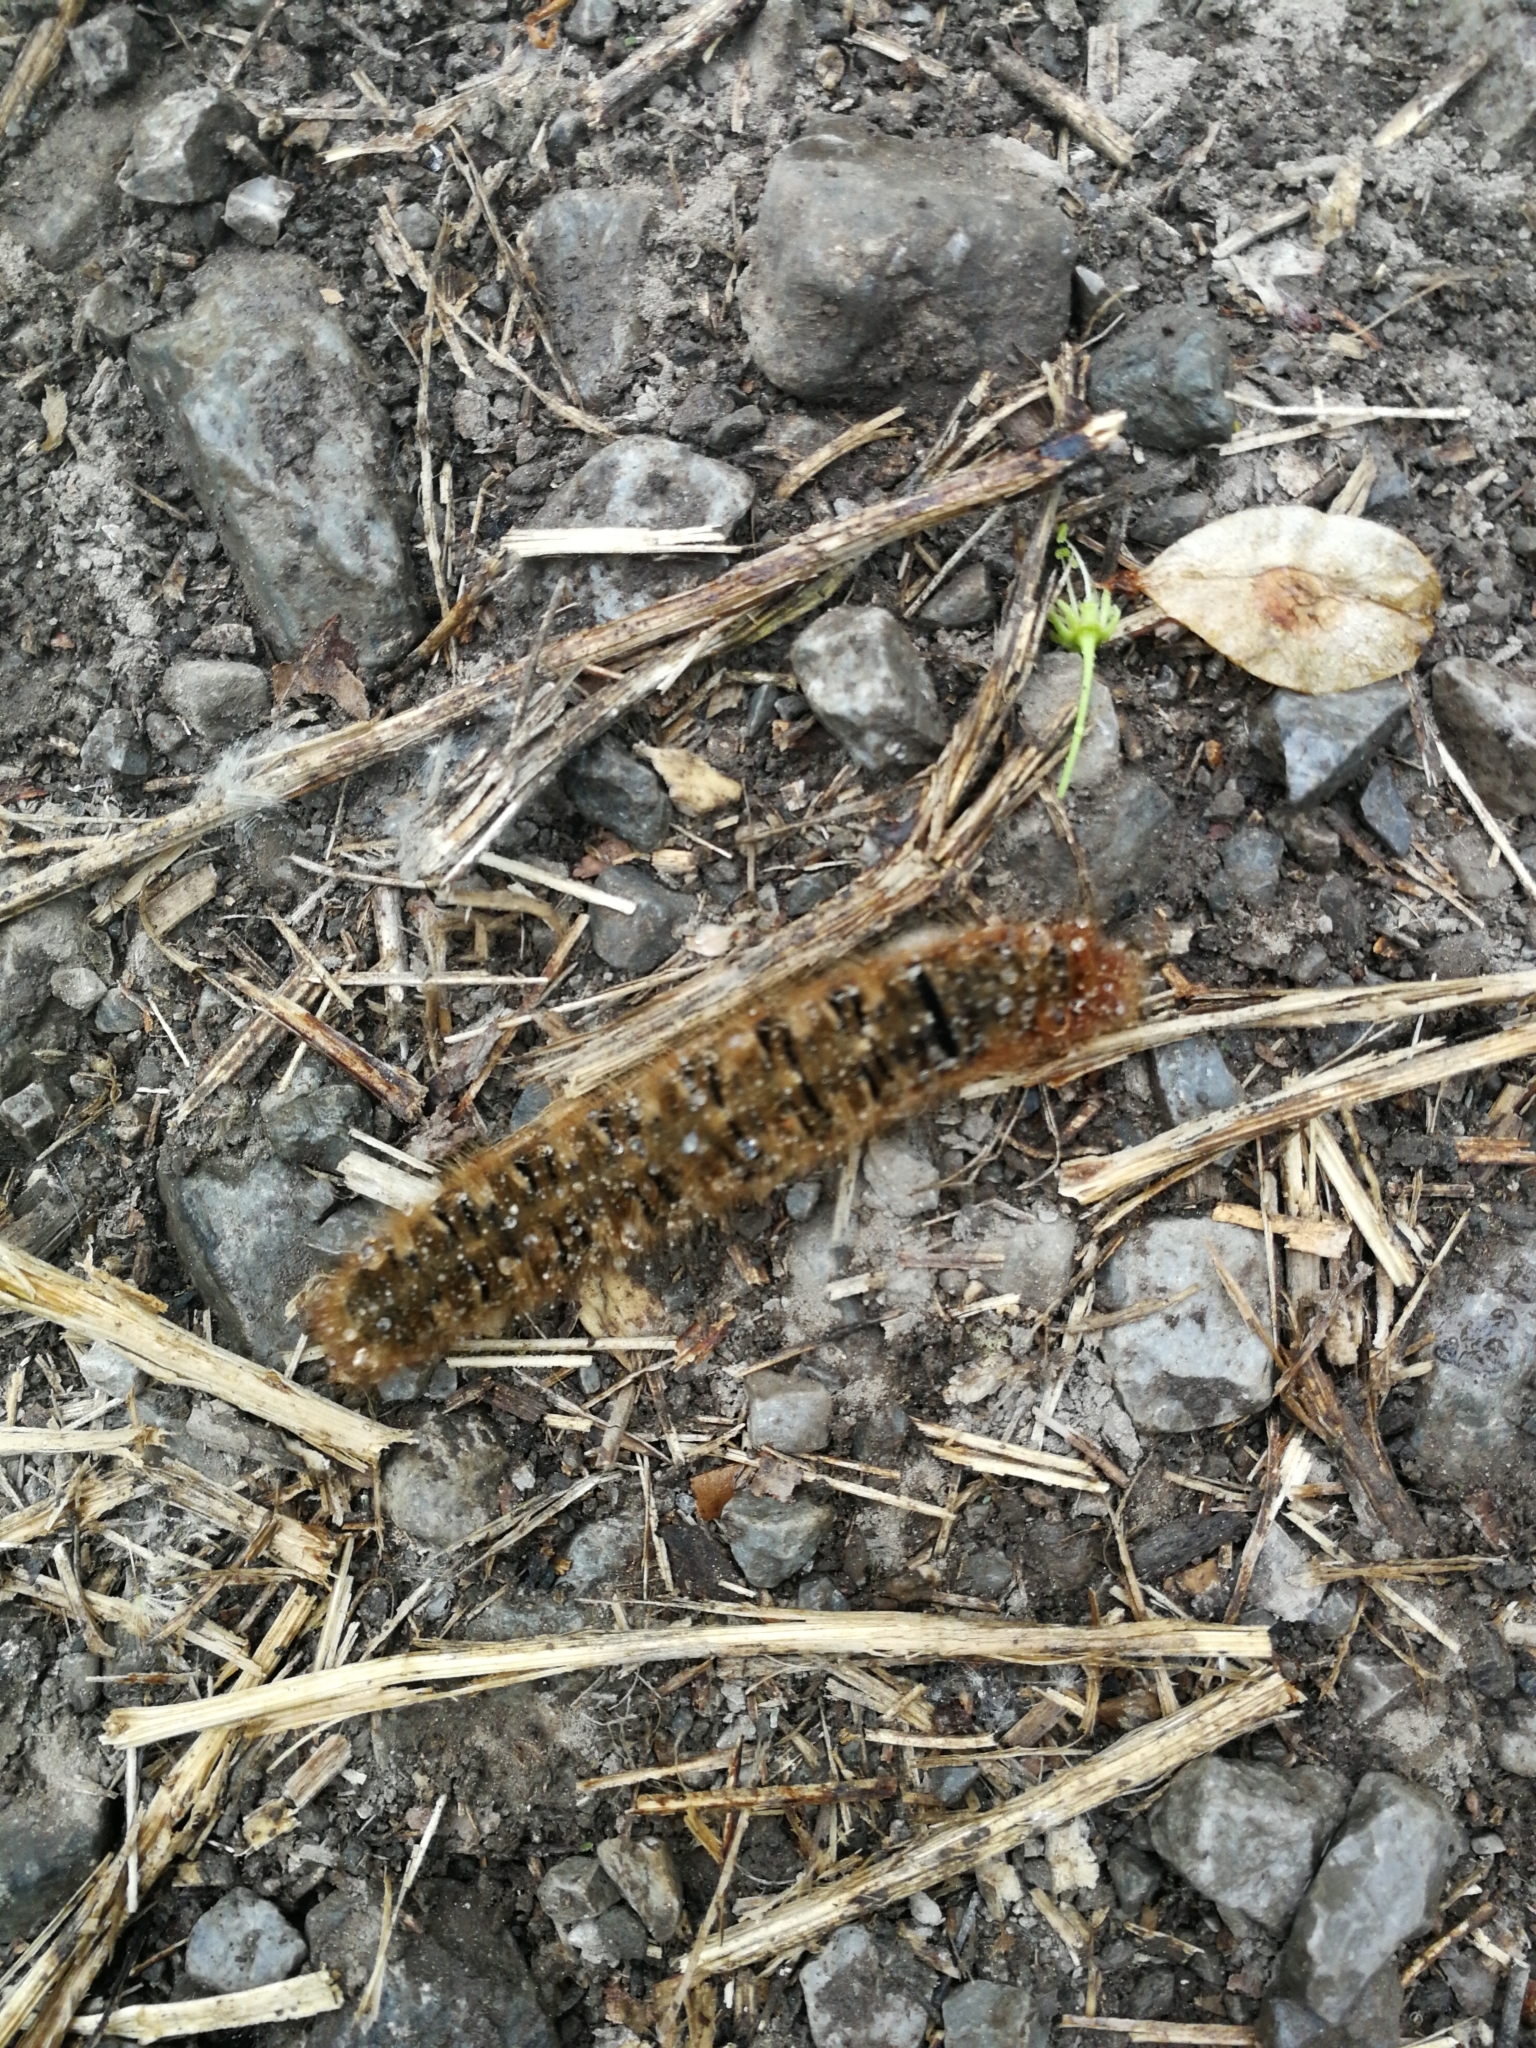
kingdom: Animalia
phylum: Arthropoda
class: Insecta
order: Lepidoptera
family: Lasiocampidae
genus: Lasiocampa
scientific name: Lasiocampa quercus
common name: Oak eggar
